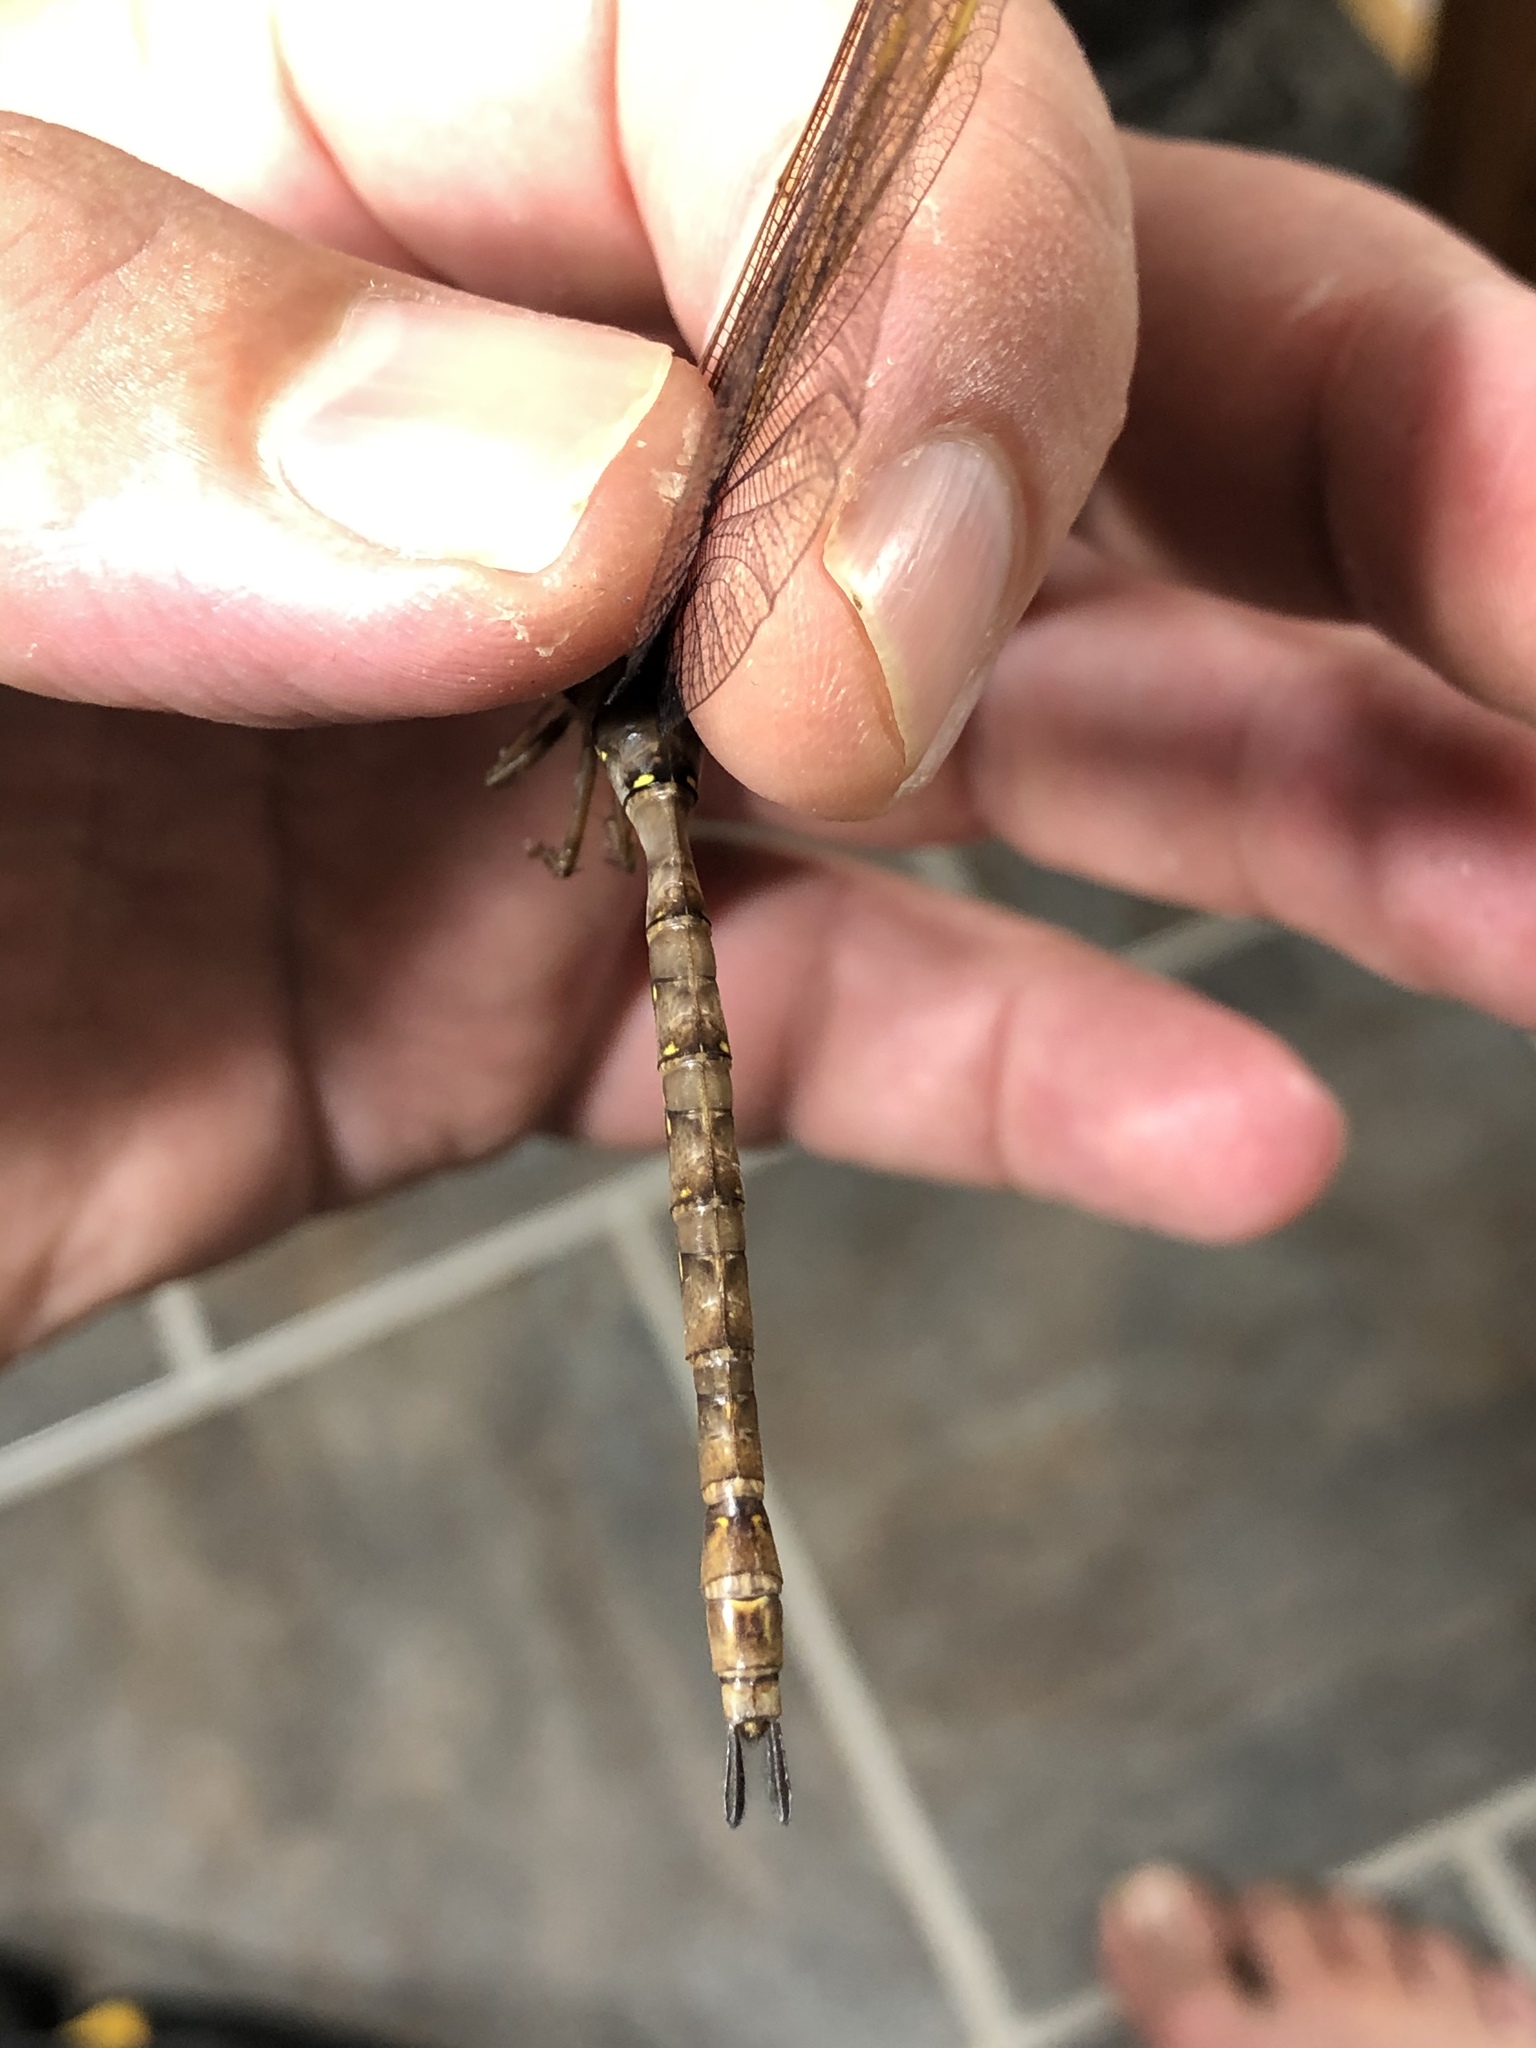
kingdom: Animalia
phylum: Arthropoda
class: Insecta
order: Odonata
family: Aeshnidae
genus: Boyeria
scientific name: Boyeria vinosa
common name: Fawn darner
